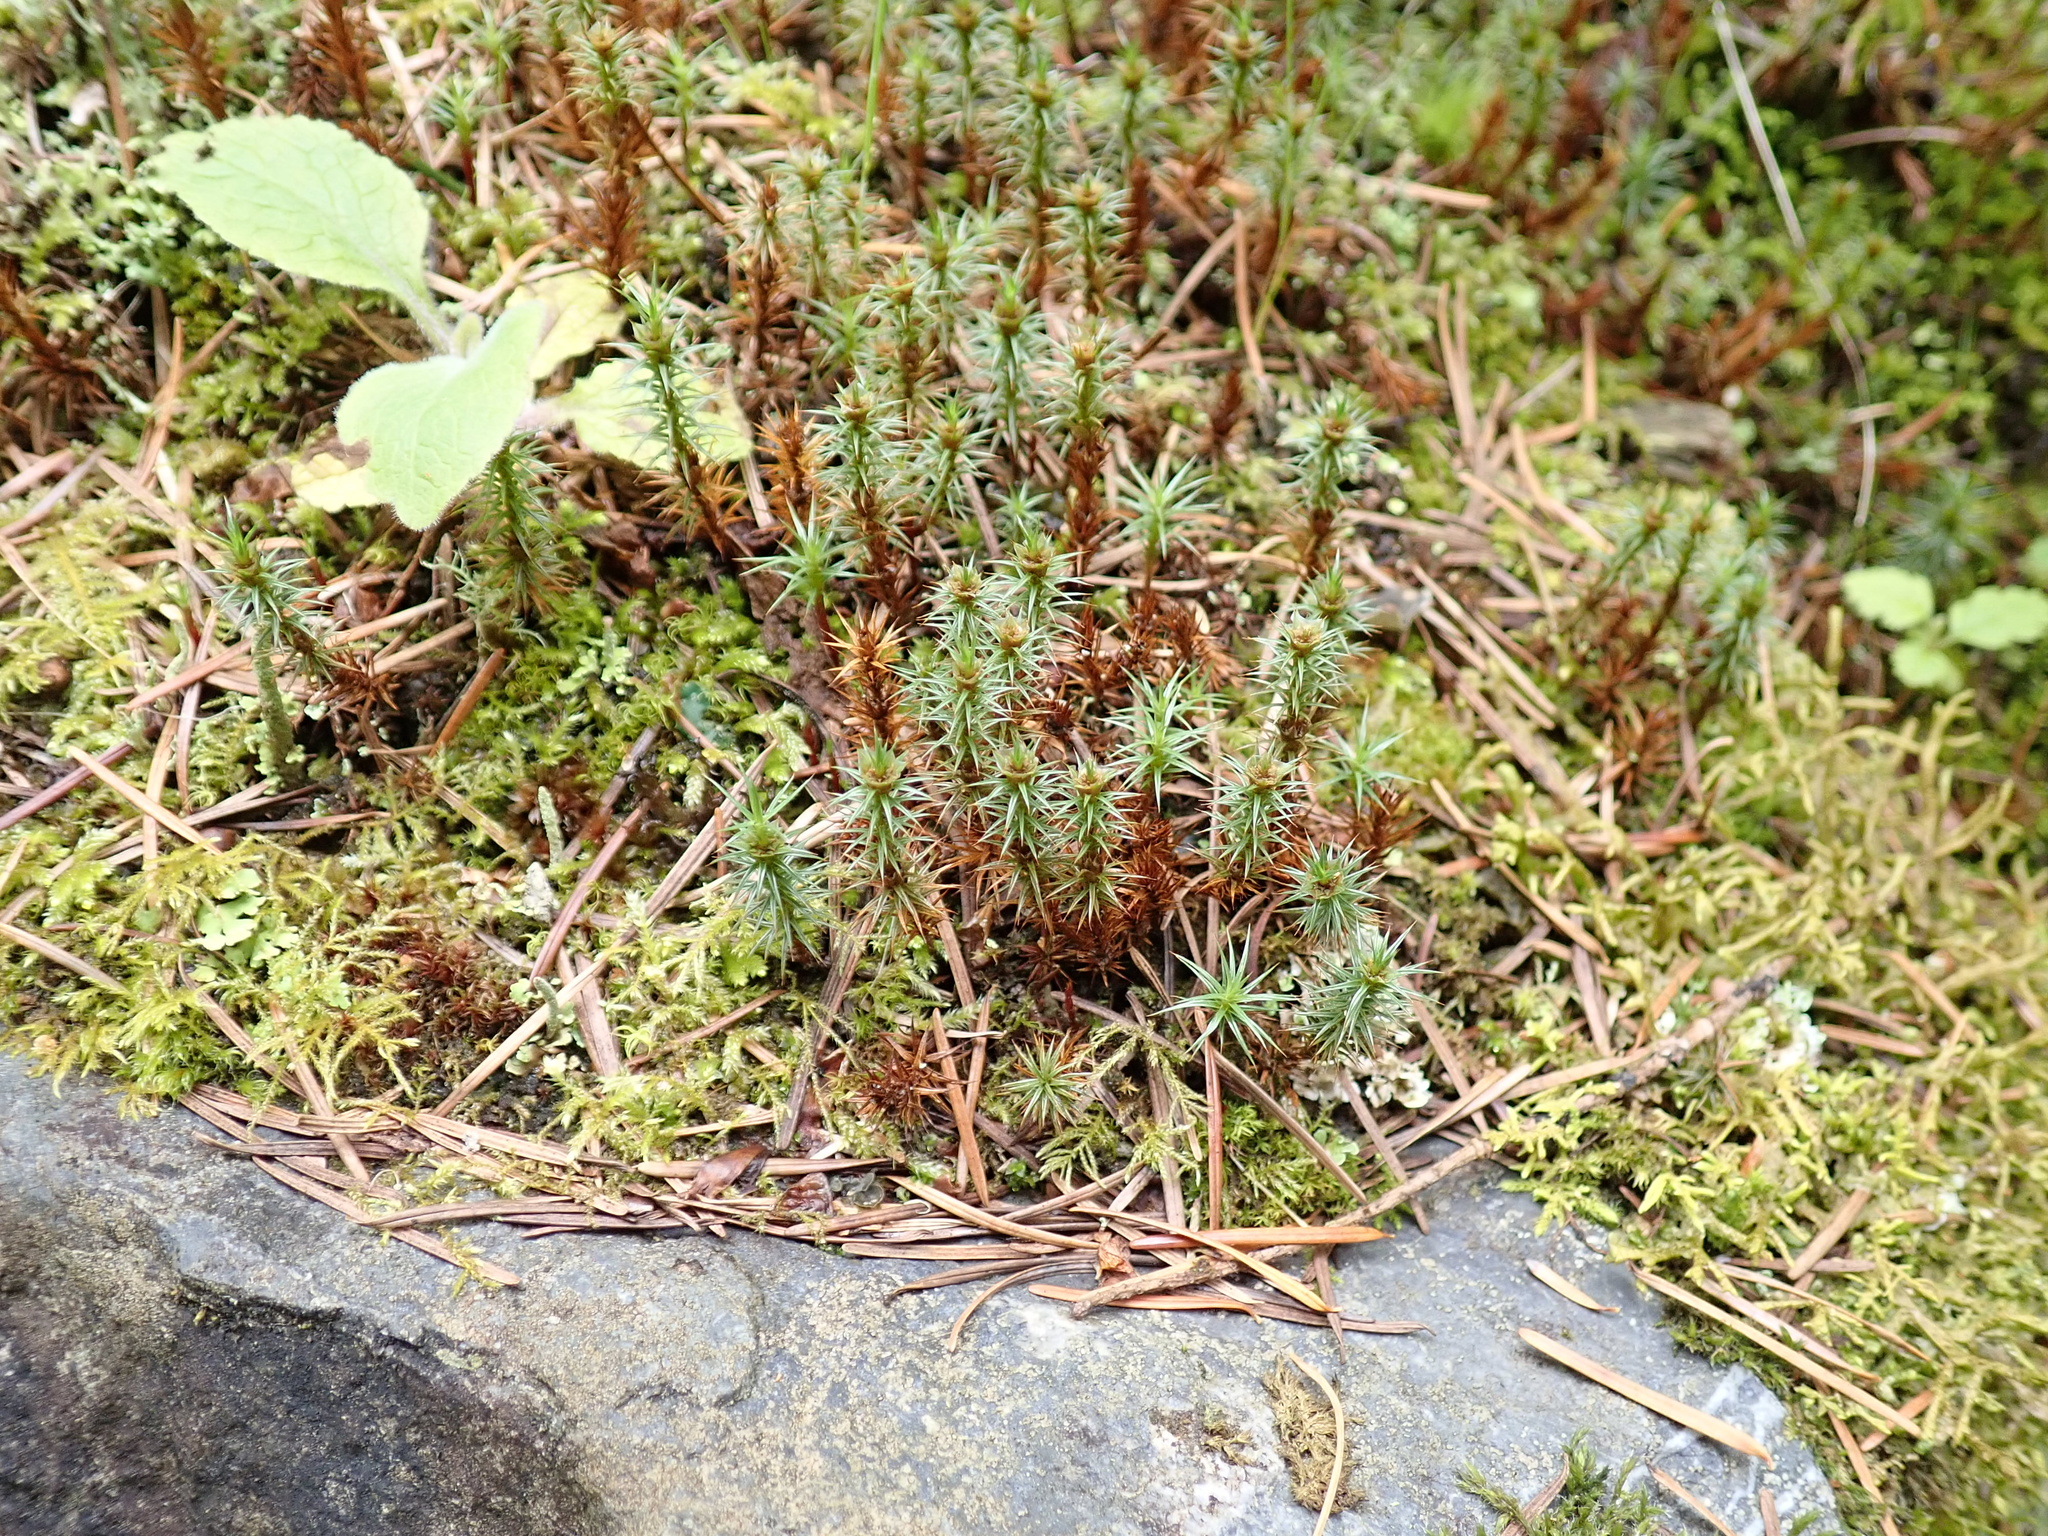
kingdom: Plantae
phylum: Bryophyta
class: Polytrichopsida
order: Polytrichales
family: Polytrichaceae
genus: Polytrichum
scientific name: Polytrichum juniperinum
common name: Juniper haircap moss
